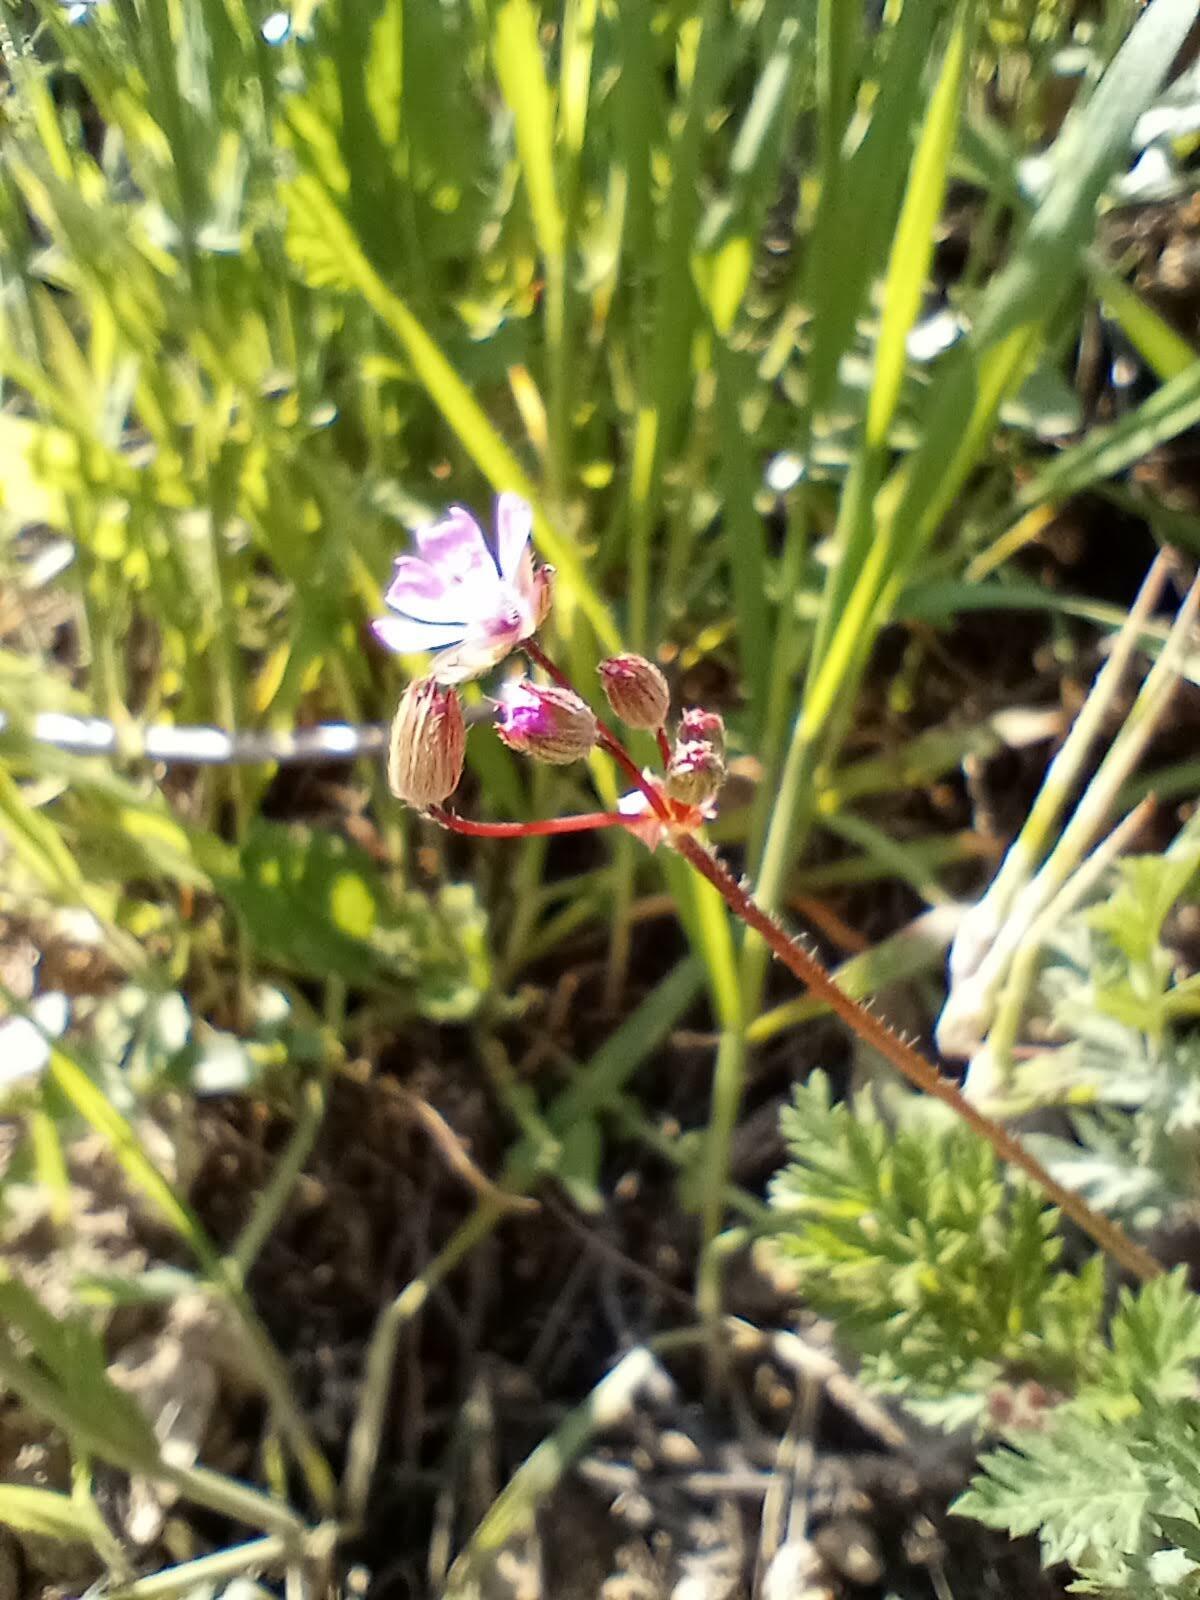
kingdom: Plantae
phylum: Tracheophyta
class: Magnoliopsida
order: Geraniales
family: Geraniaceae
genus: Erodium
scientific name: Erodium cicutarium
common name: Common stork's-bill
